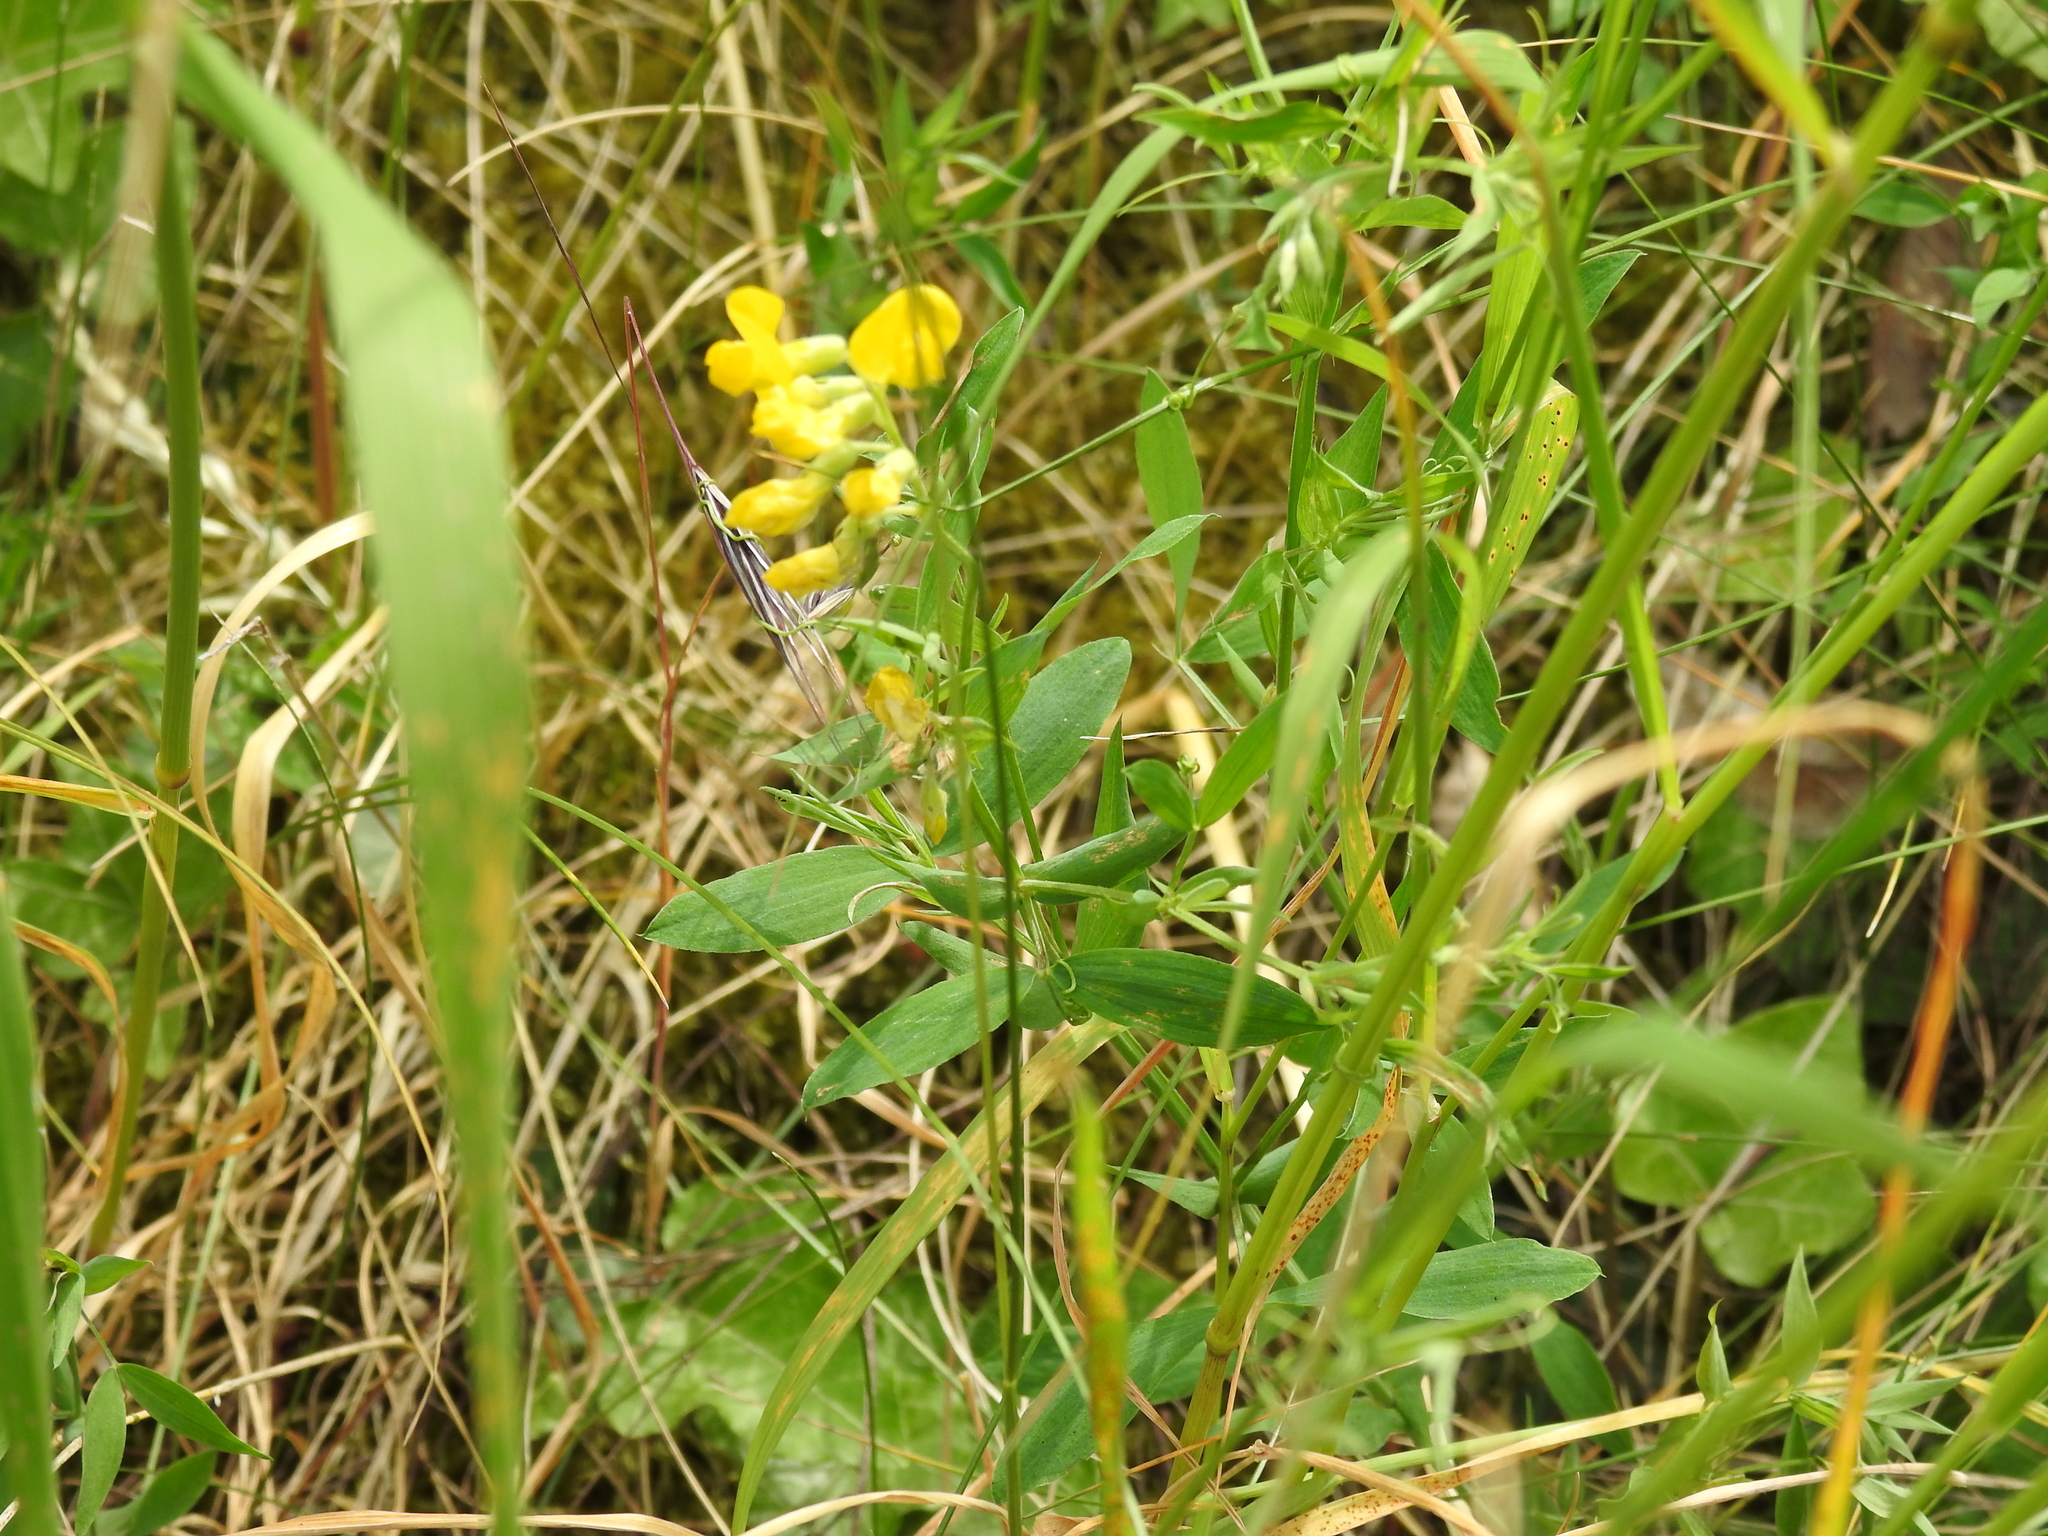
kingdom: Plantae
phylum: Tracheophyta
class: Magnoliopsida
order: Fabales
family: Fabaceae
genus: Lathyrus
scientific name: Lathyrus pratensis
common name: Meadow vetchling
